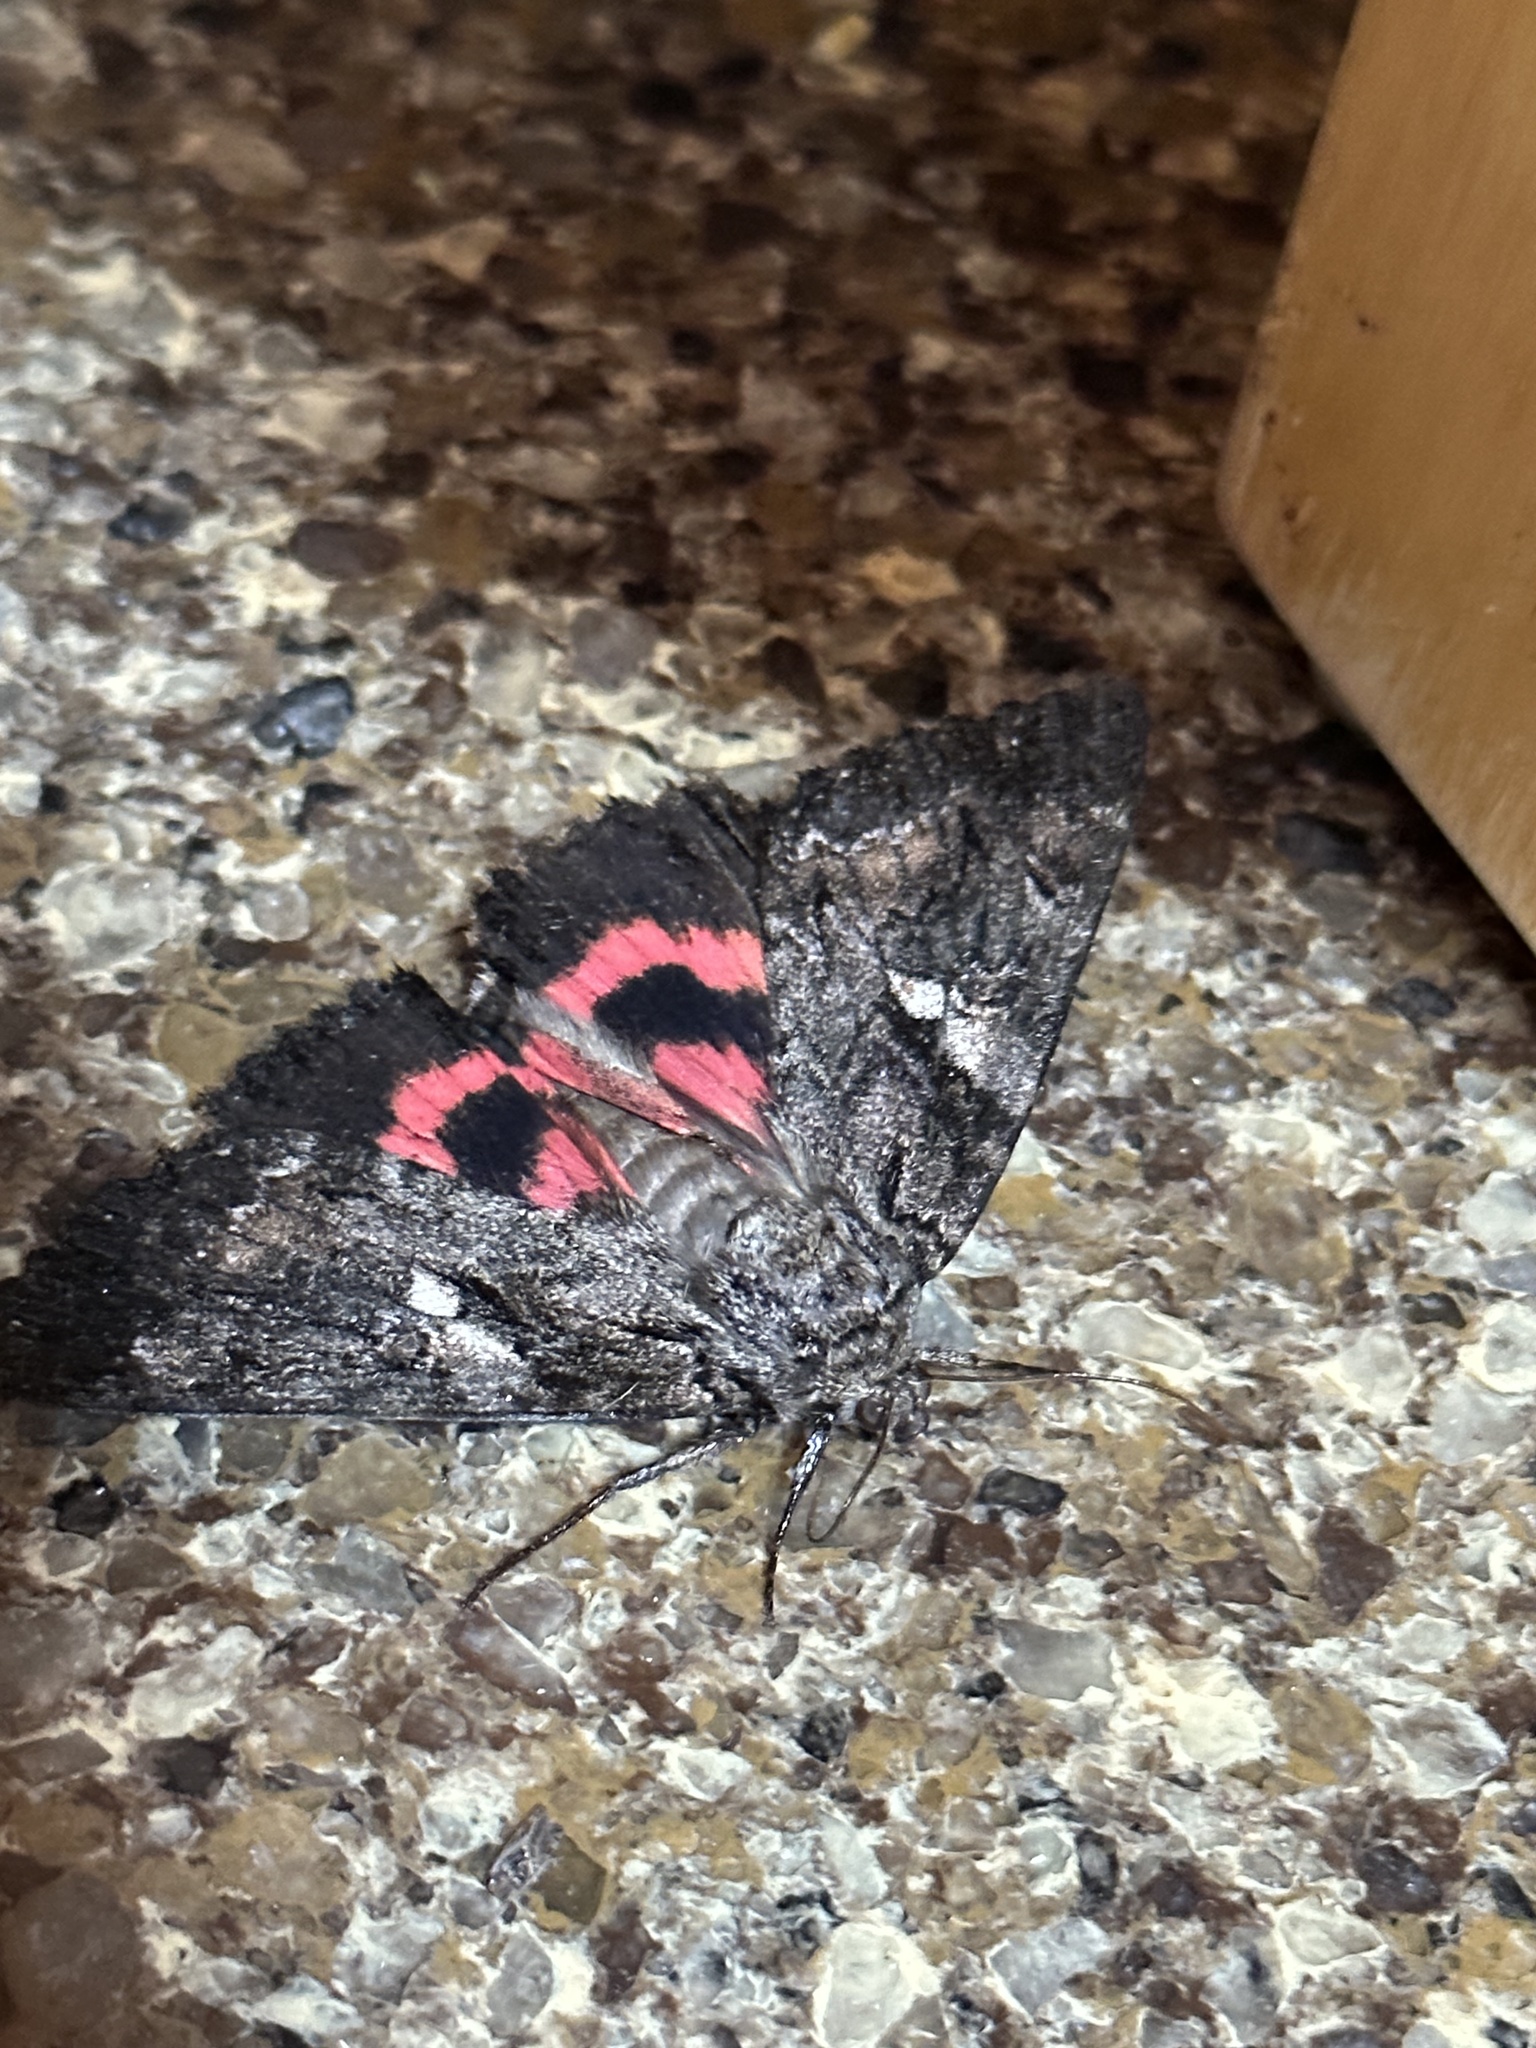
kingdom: Animalia
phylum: Arthropoda
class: Insecta
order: Lepidoptera
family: Erebidae
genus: Catocala
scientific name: Catocala aholibah
